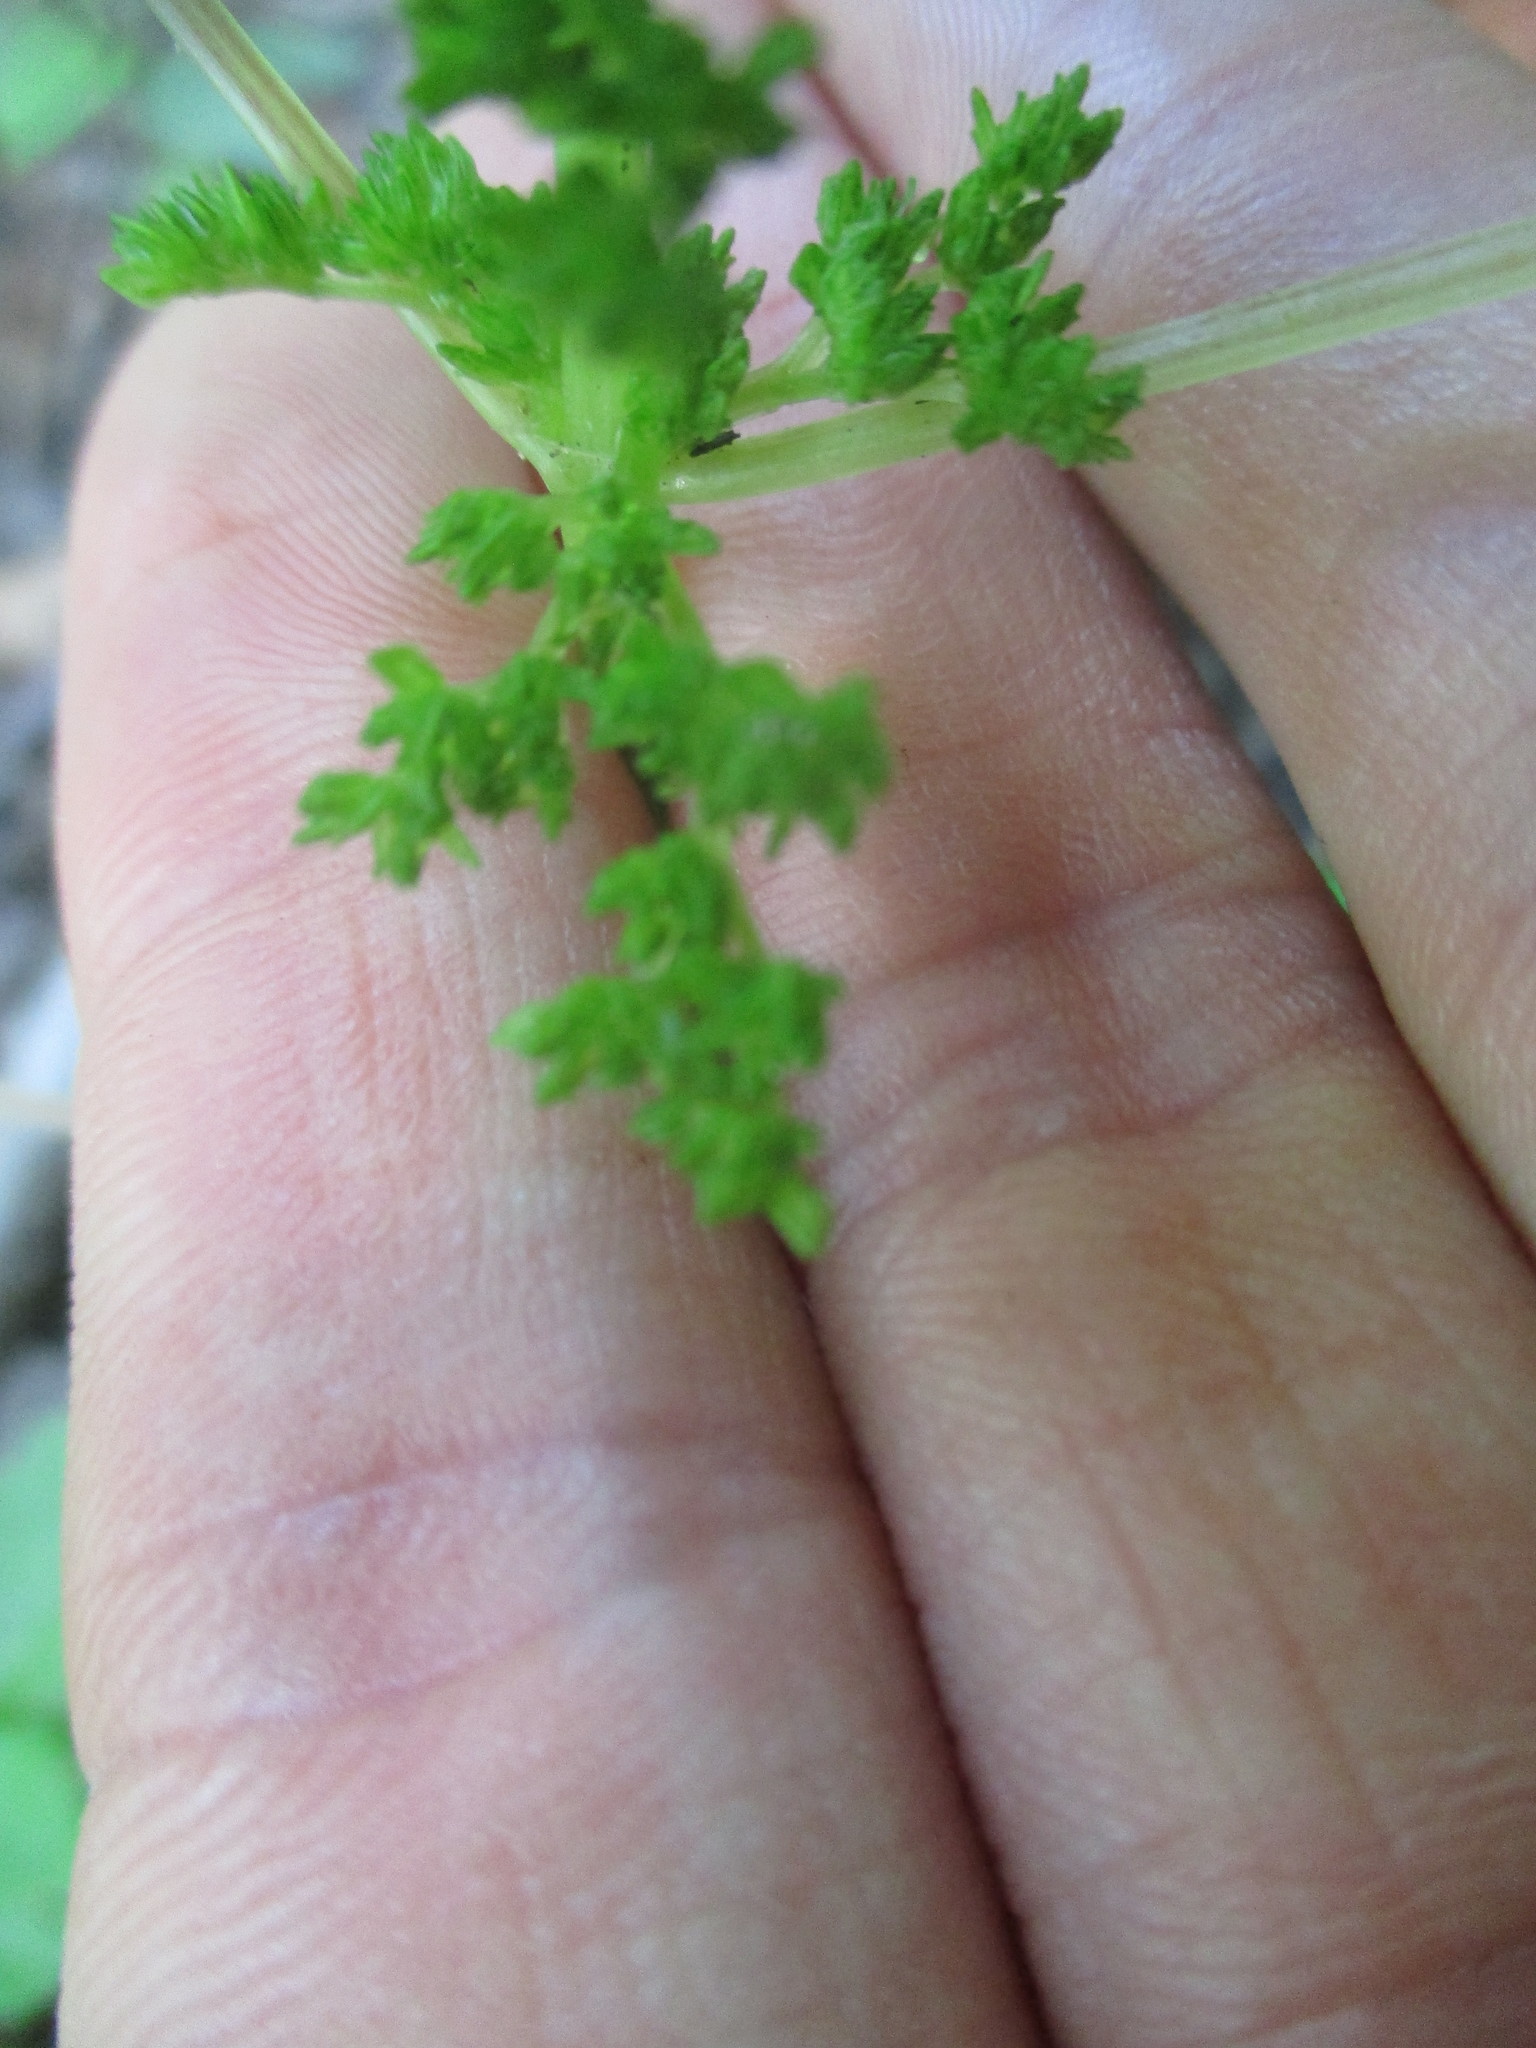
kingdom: Plantae
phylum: Tracheophyta
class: Magnoliopsida
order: Rosales
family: Urticaceae
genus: Pilea
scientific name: Pilea pumila
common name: Clearweed
